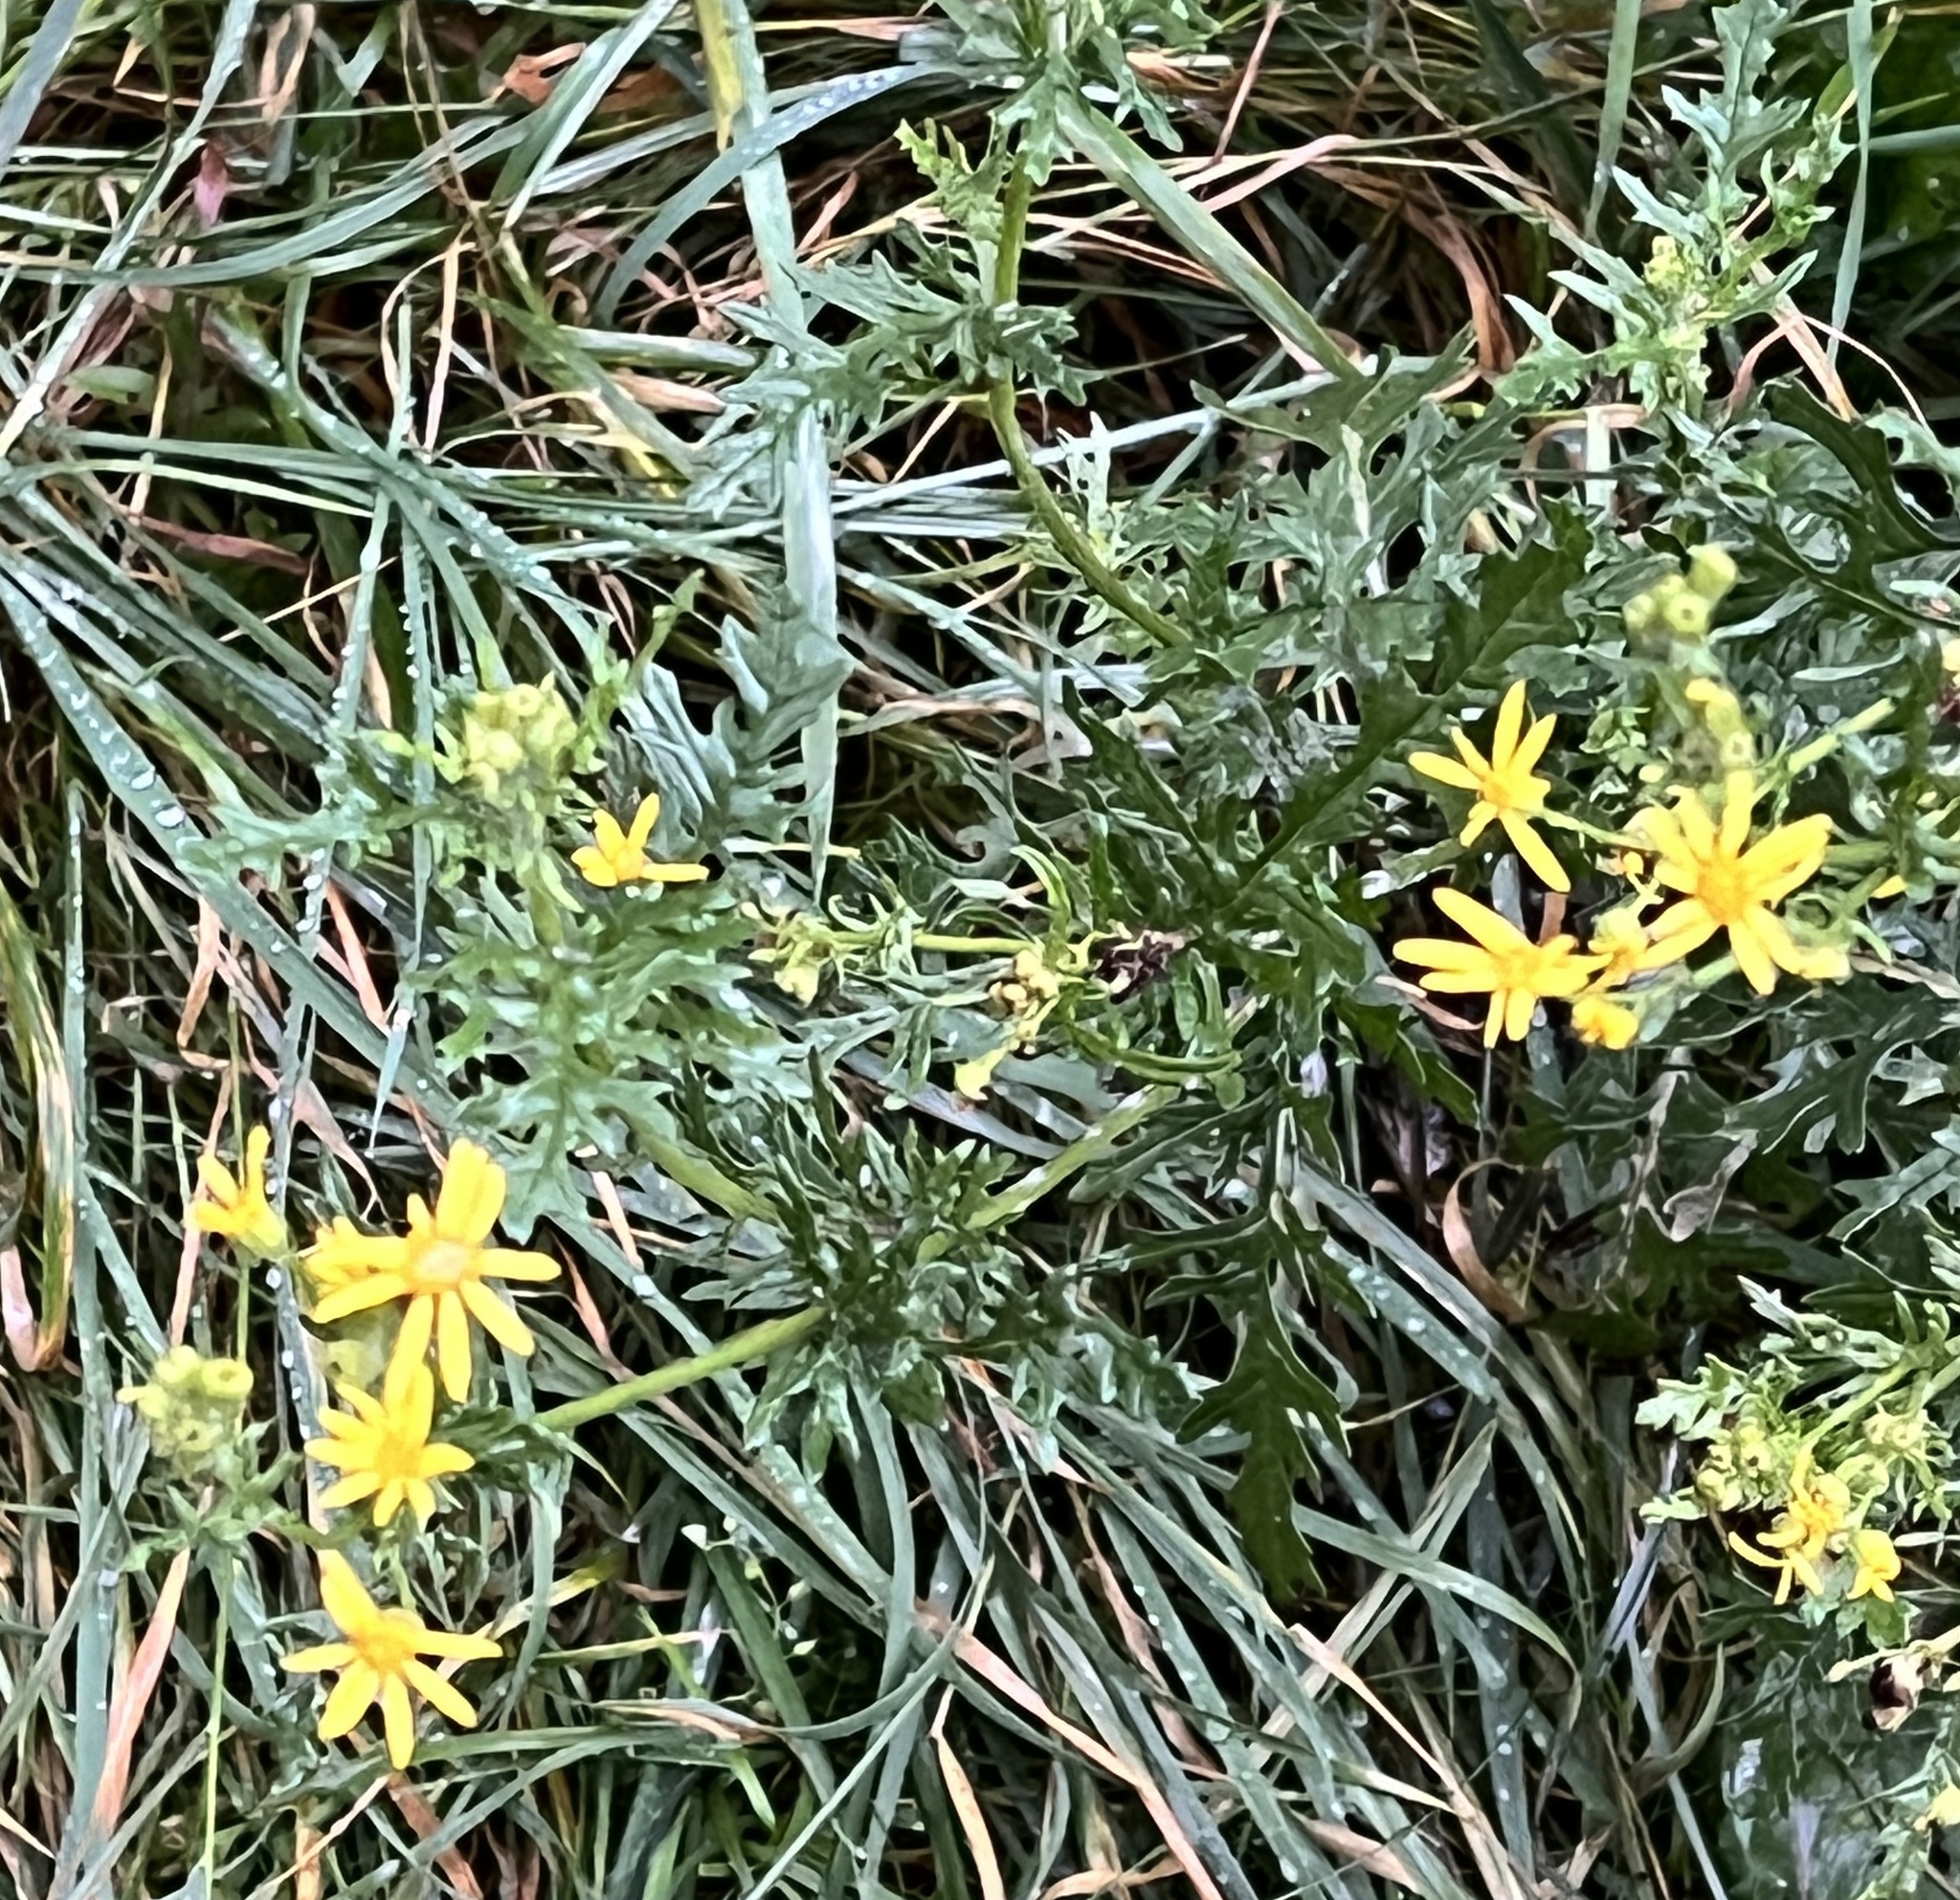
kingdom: Plantae
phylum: Tracheophyta
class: Magnoliopsida
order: Asterales
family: Asteraceae
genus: Jacobaea
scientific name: Jacobaea vulgaris
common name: Stinking willie
